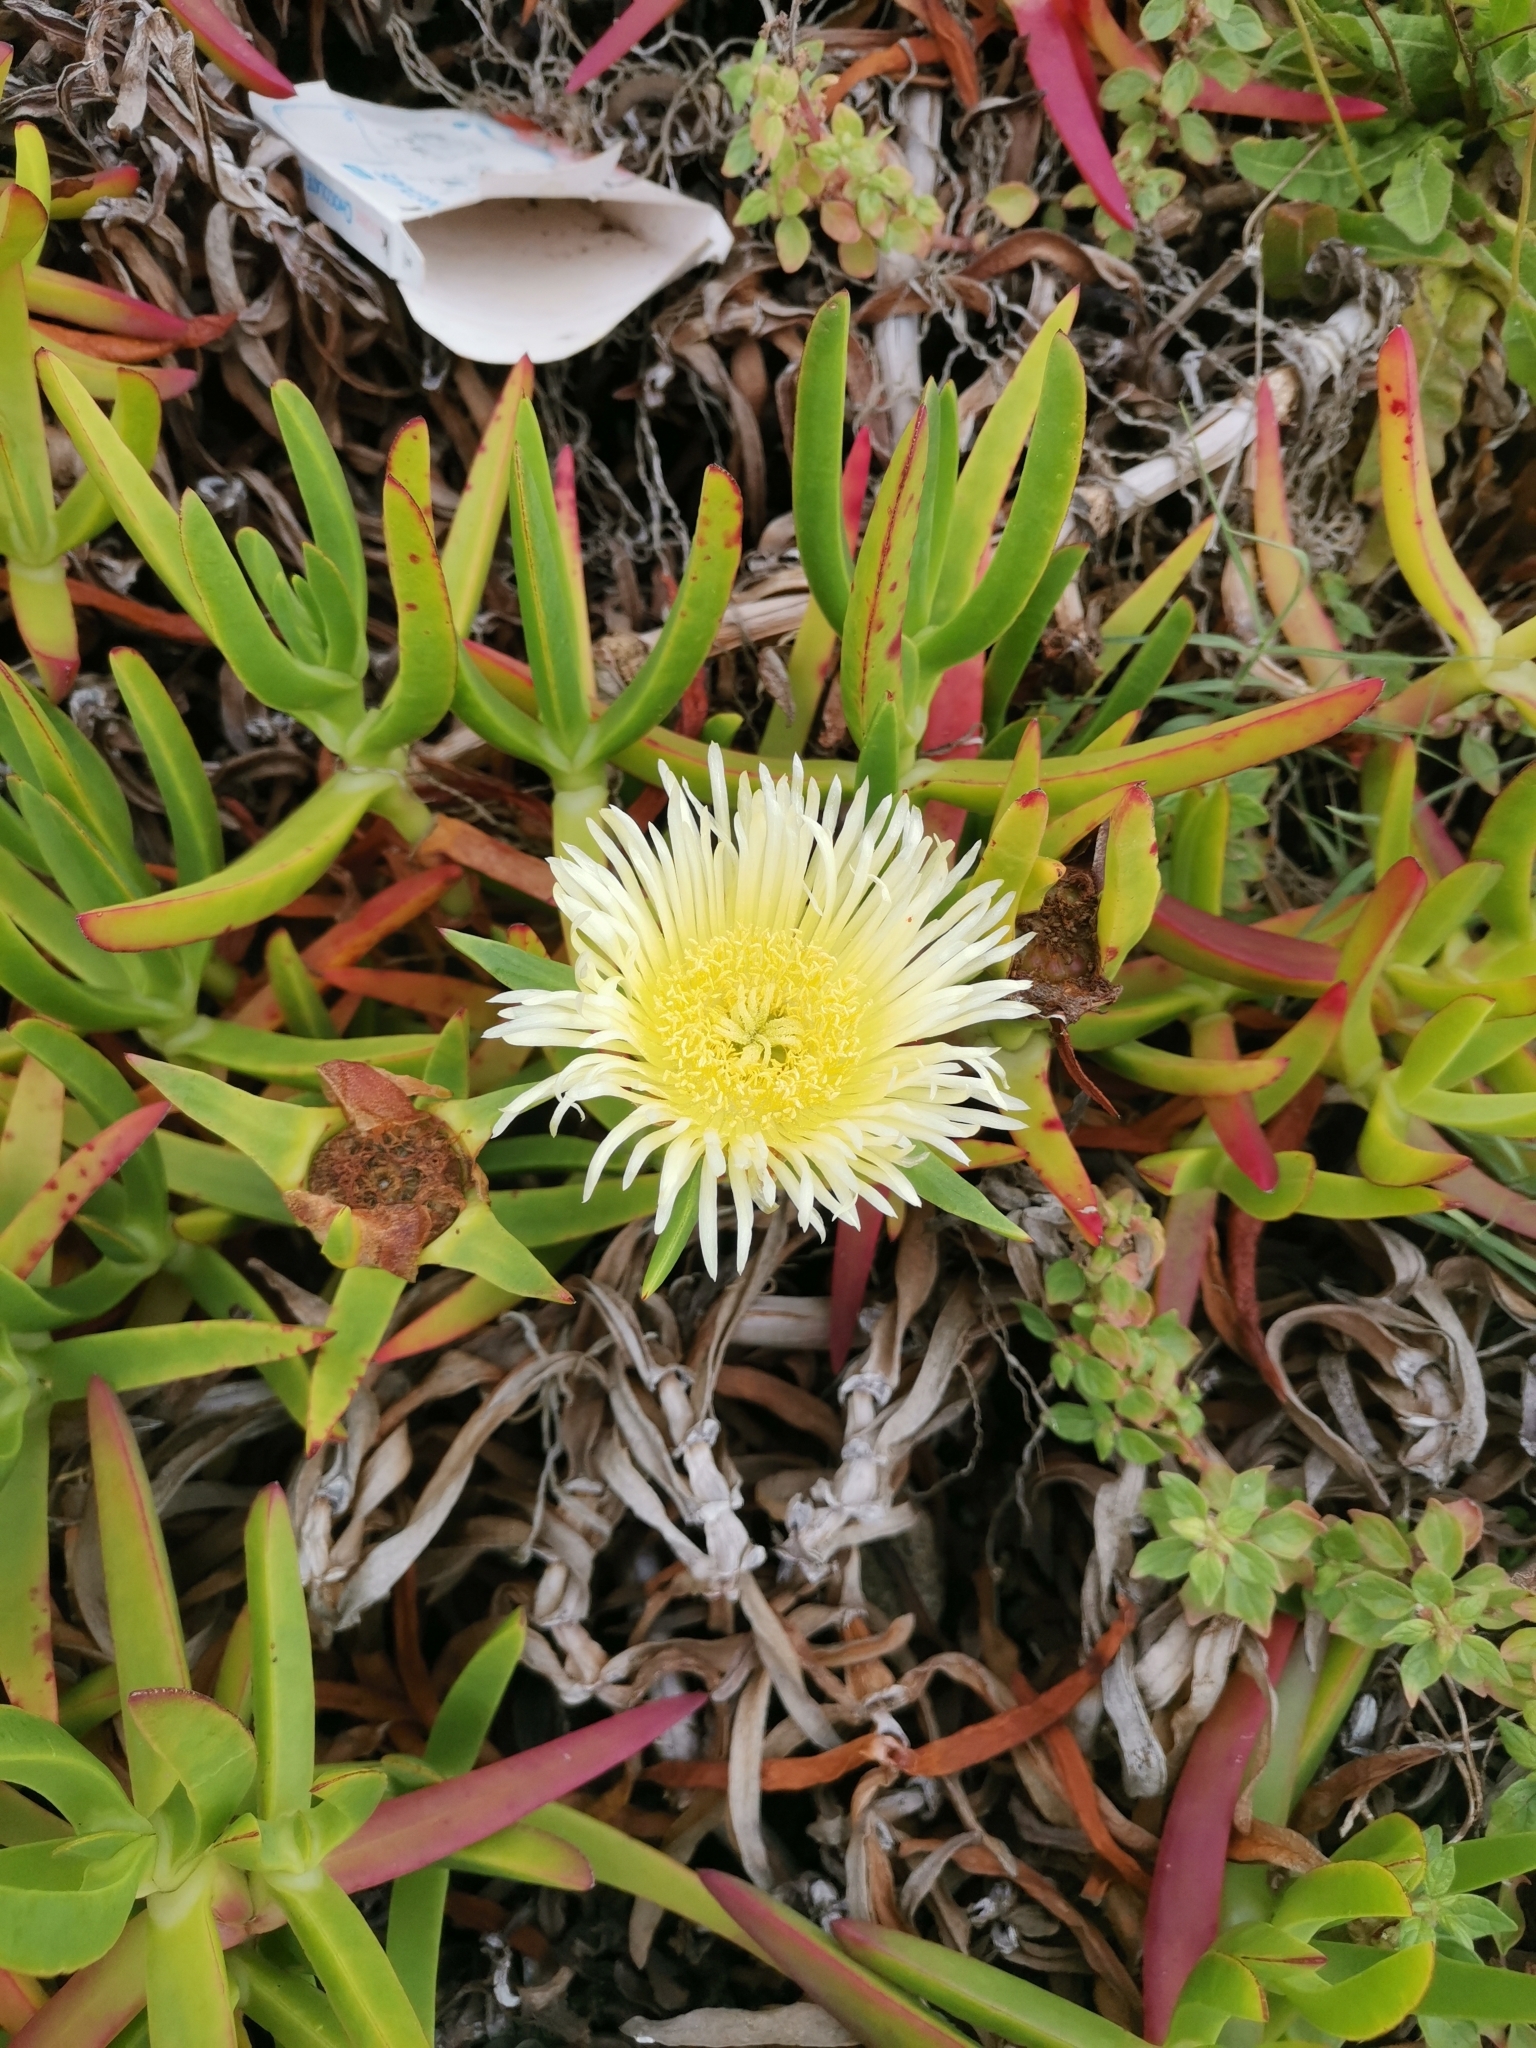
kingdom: Plantae
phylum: Tracheophyta
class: Magnoliopsida
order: Caryophyllales
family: Aizoaceae
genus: Carpobrotus
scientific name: Carpobrotus edulis
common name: Hottentot-fig
